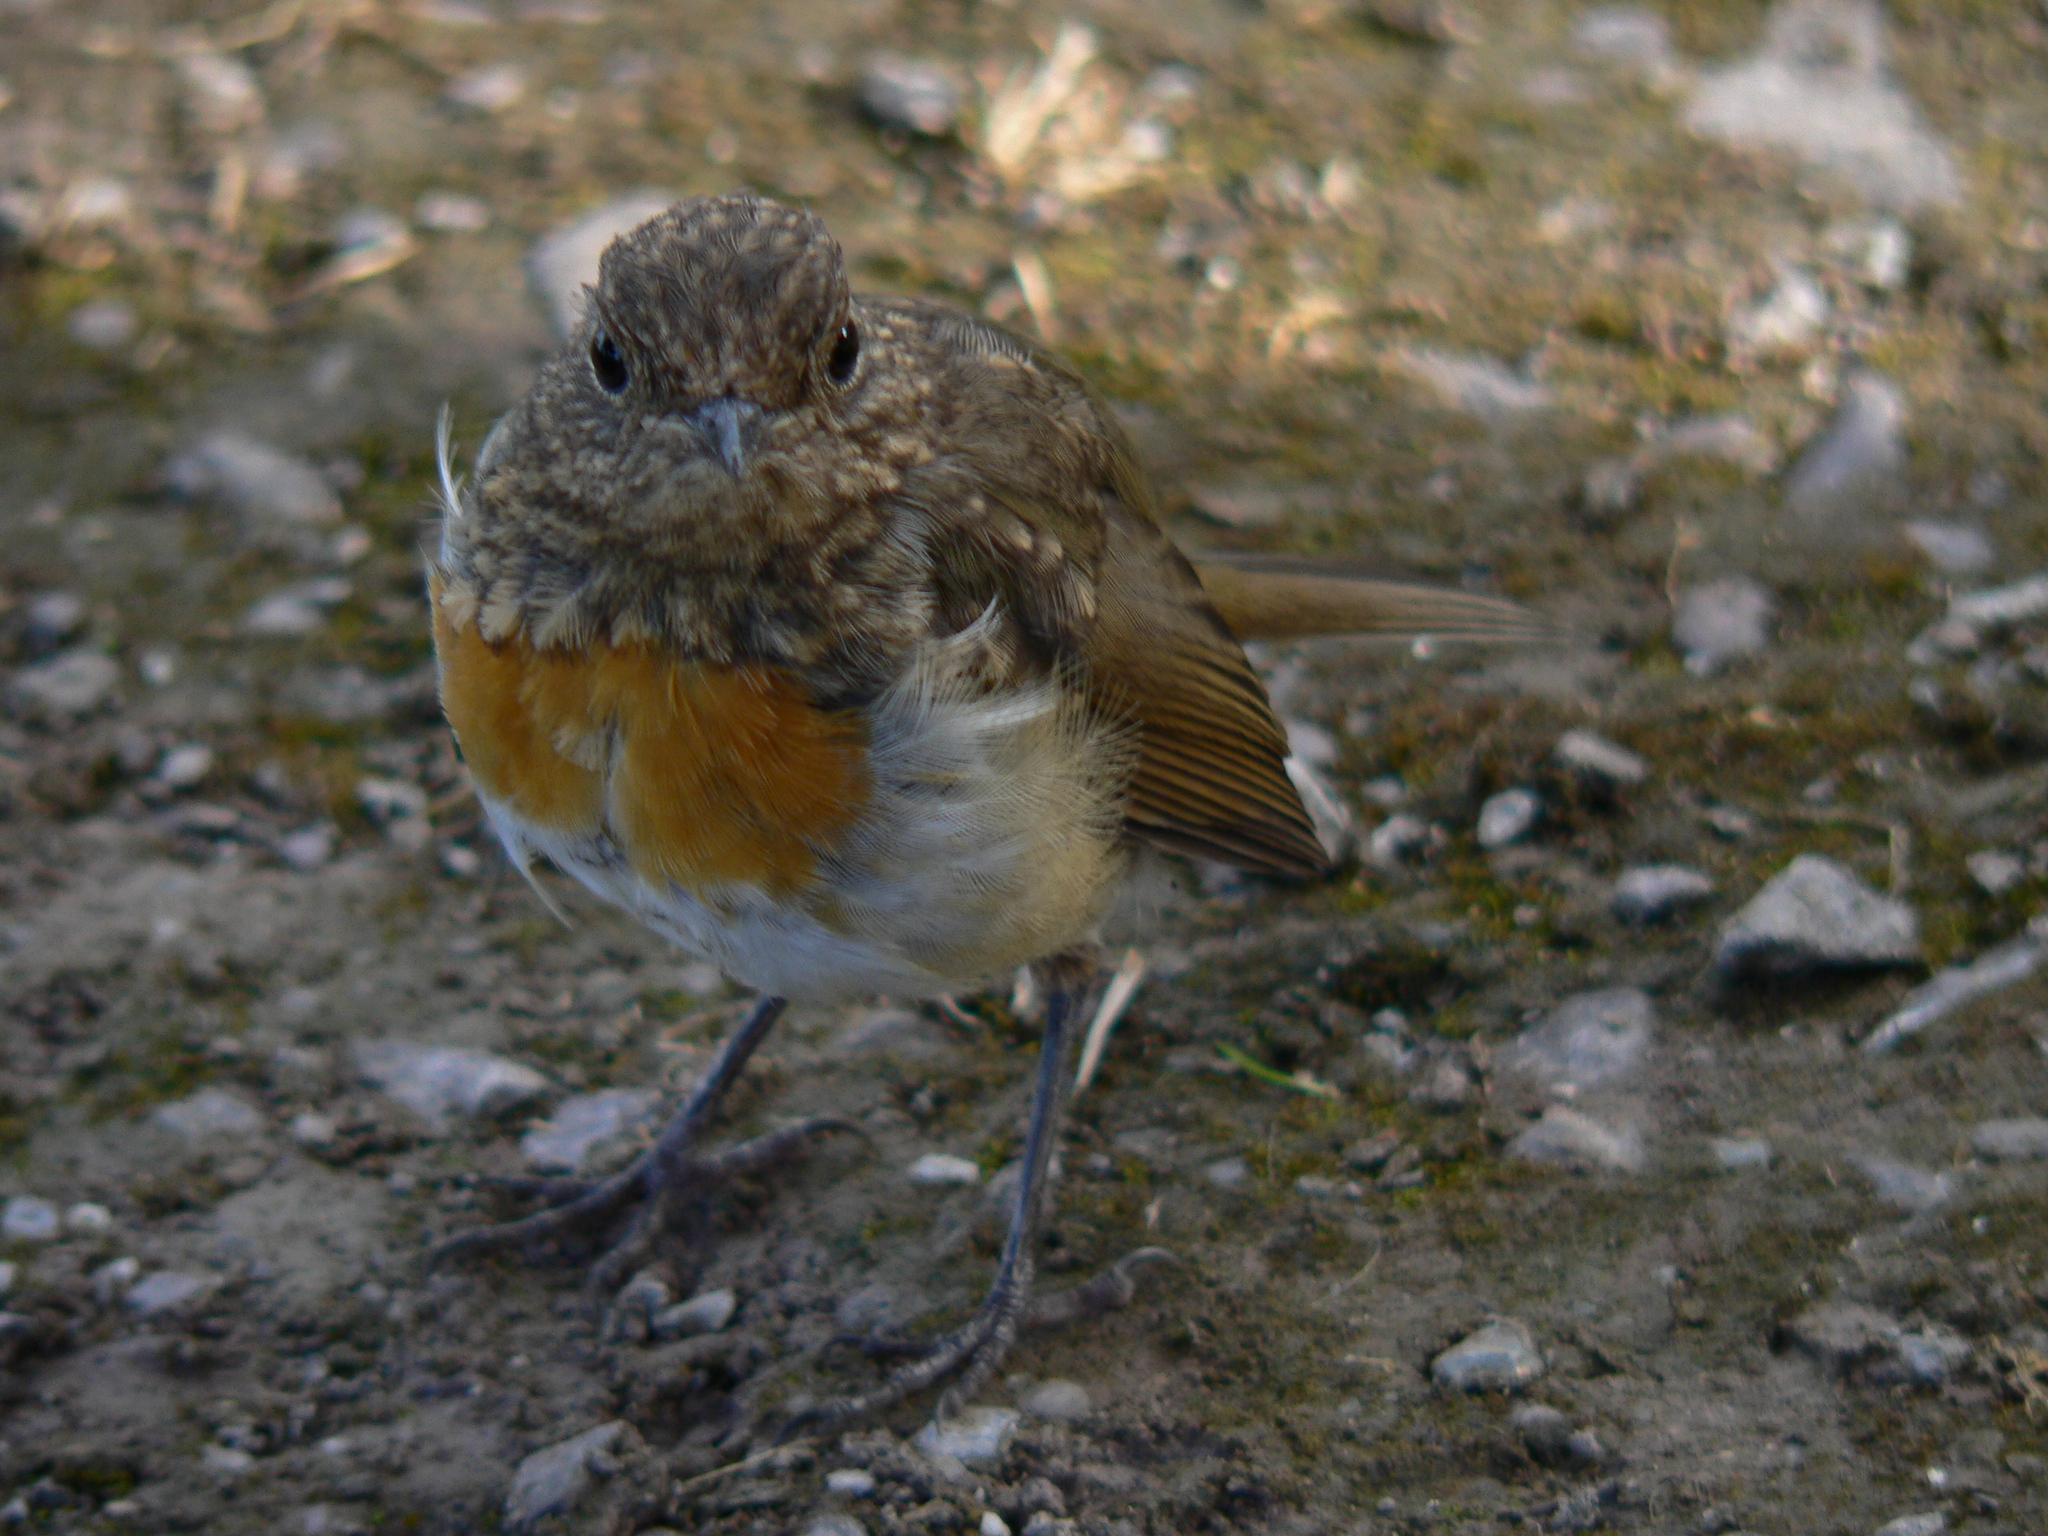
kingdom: Animalia
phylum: Chordata
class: Aves
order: Passeriformes
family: Muscicapidae
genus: Erithacus
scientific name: Erithacus rubecula
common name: European robin
